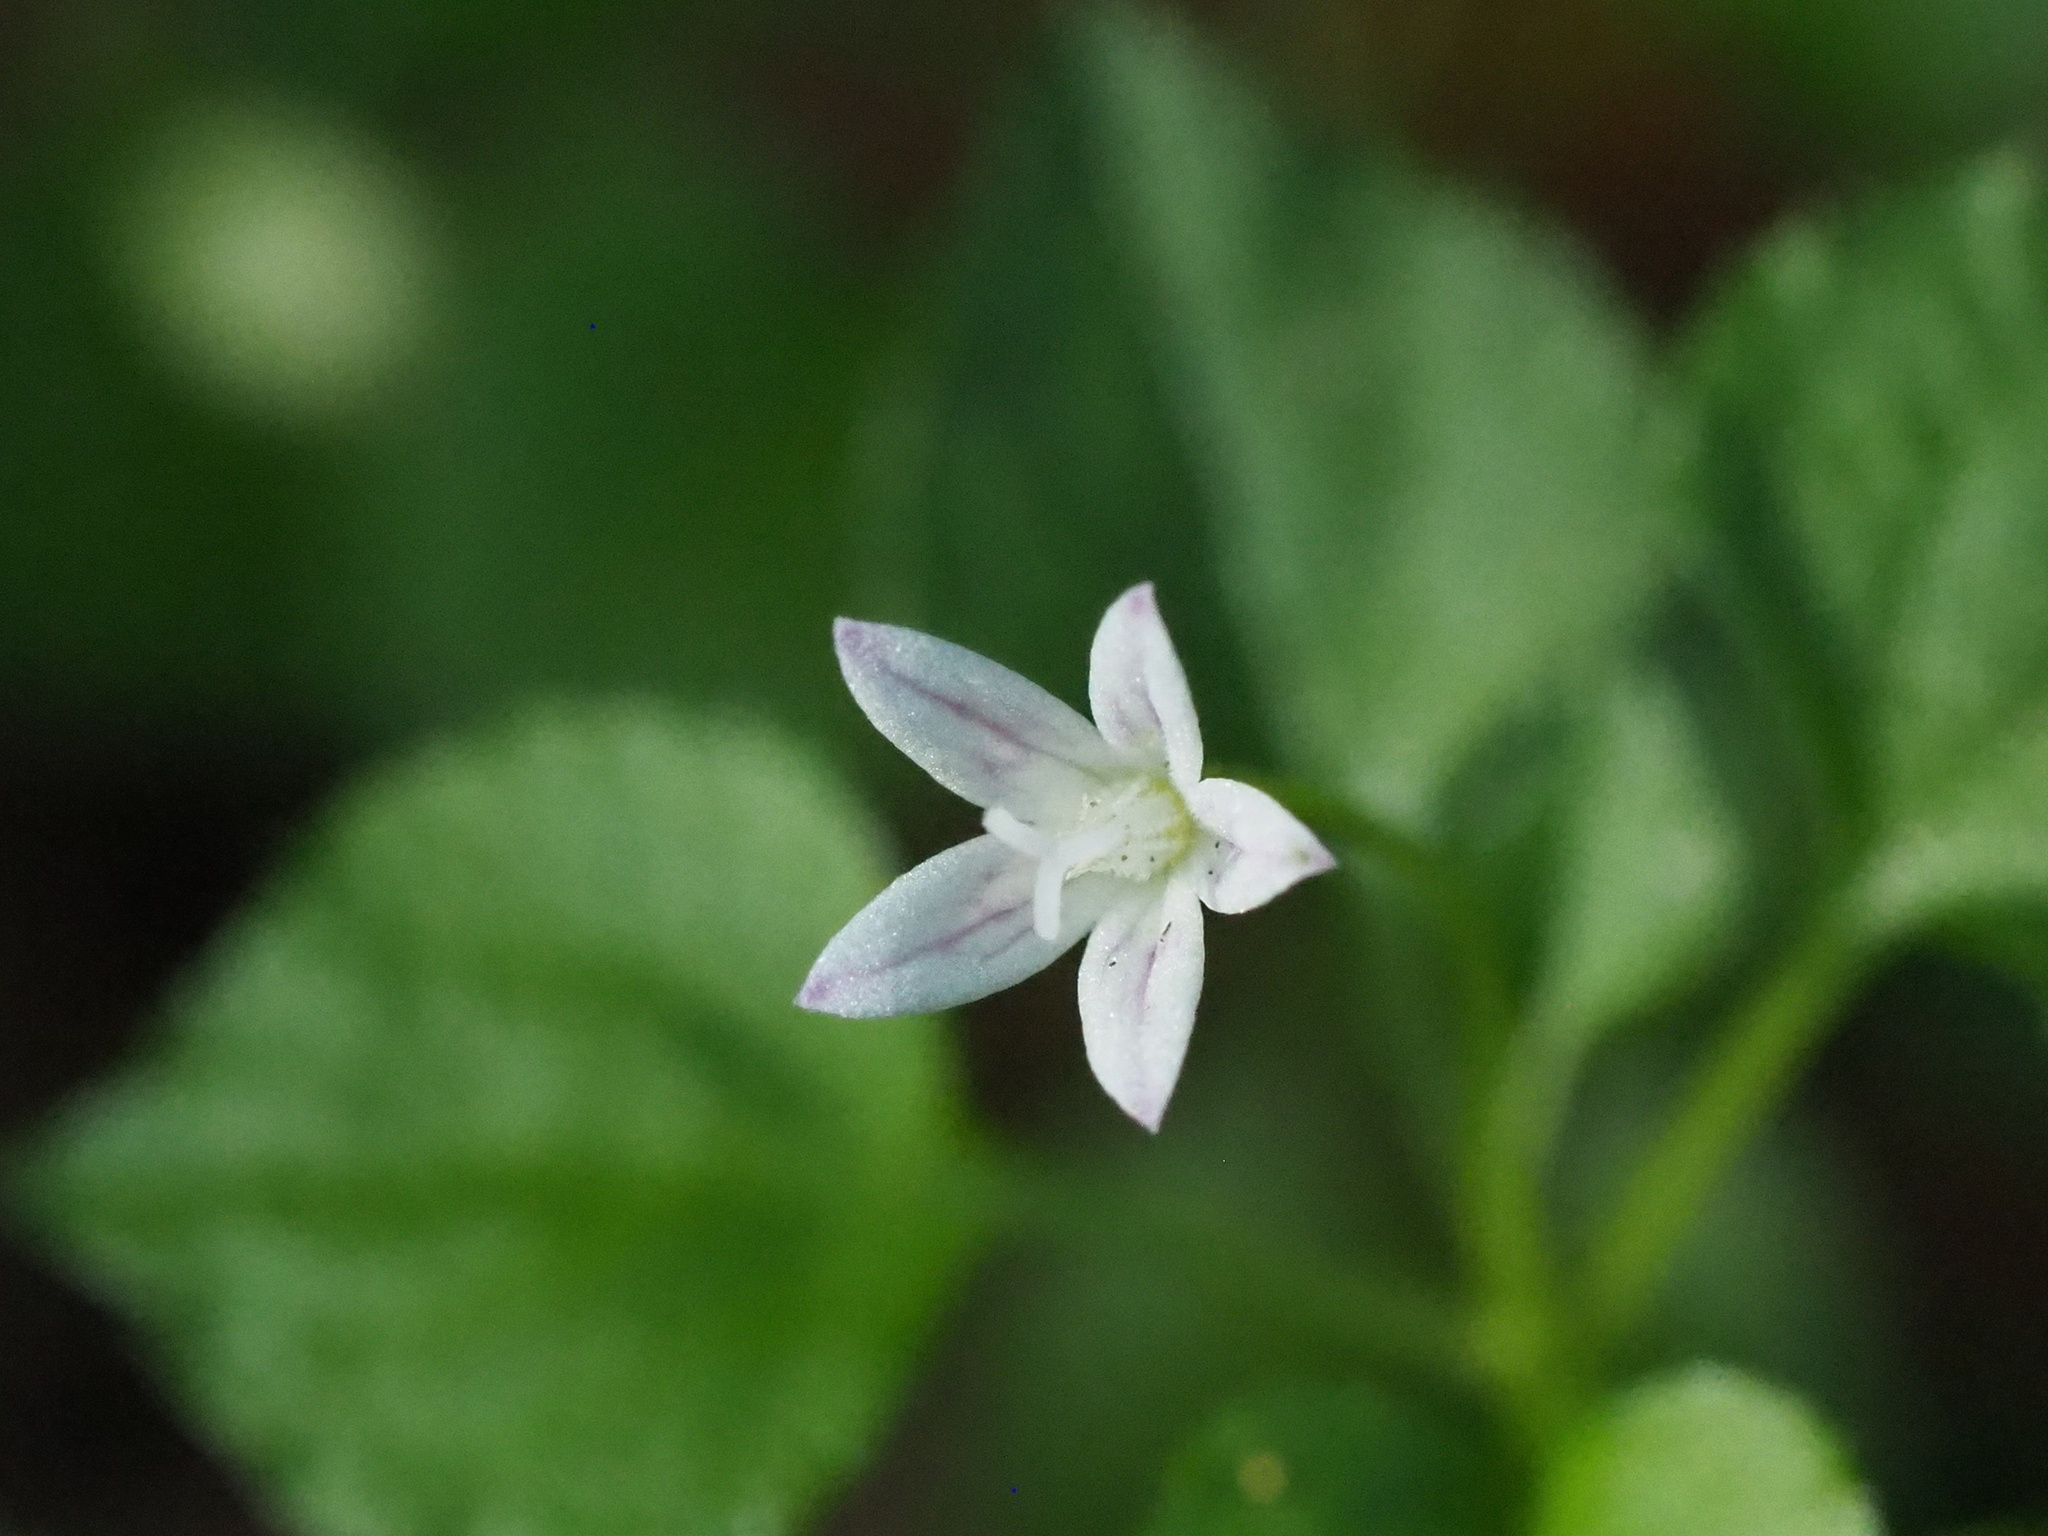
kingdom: Plantae
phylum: Tracheophyta
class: Magnoliopsida
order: Asterales
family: Campanulaceae
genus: Peracarpa
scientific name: Peracarpa carnosa
